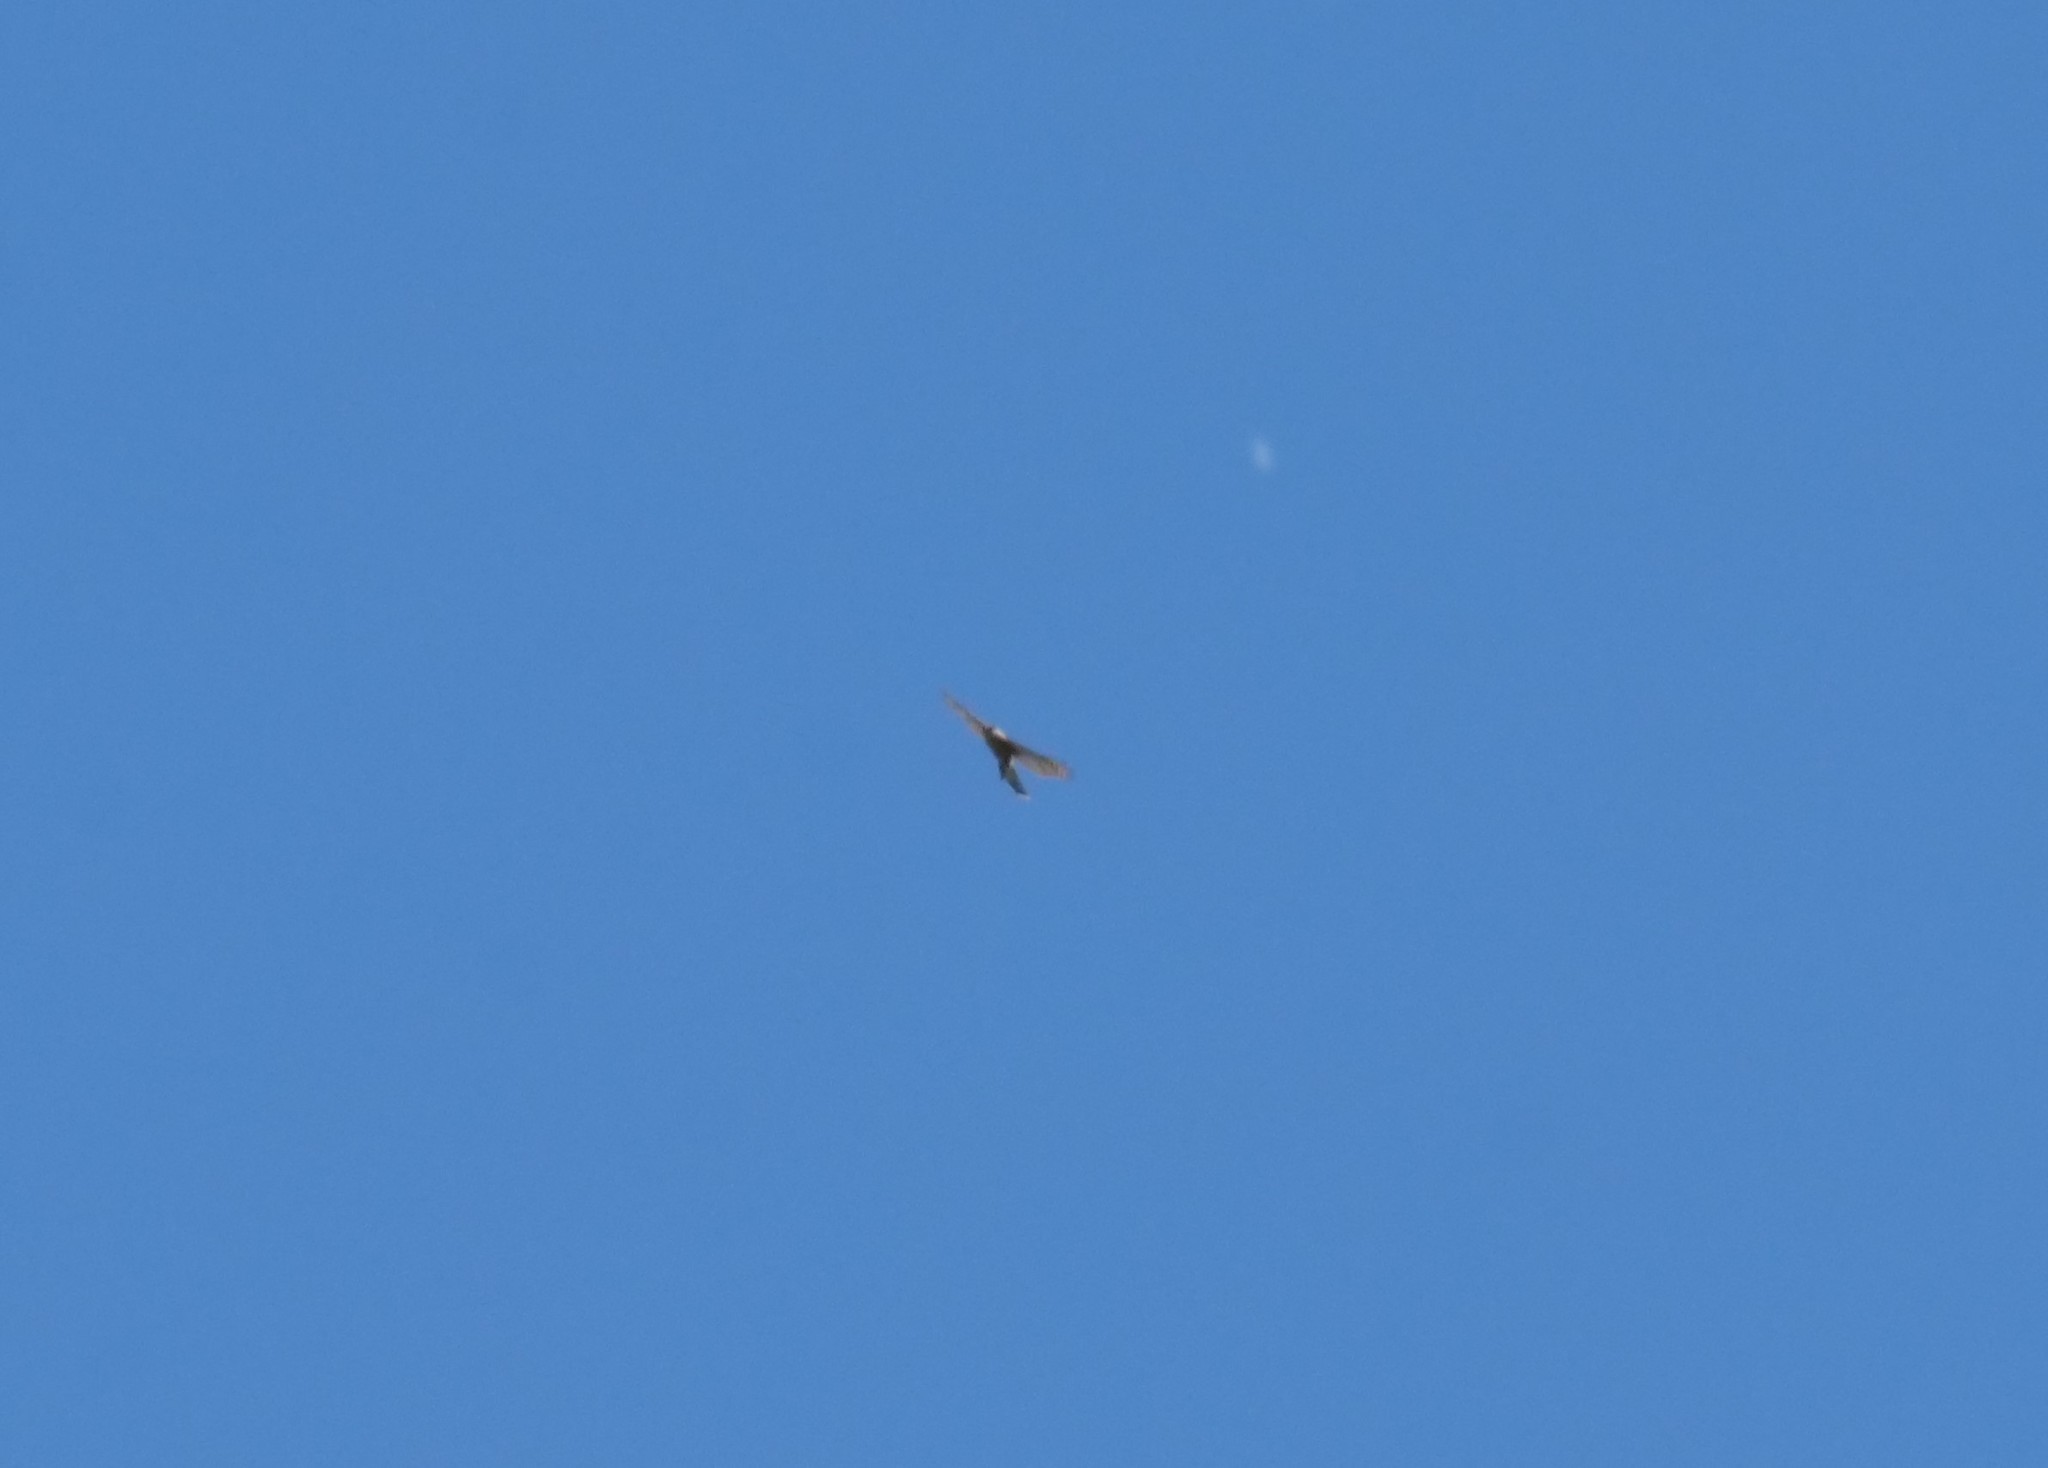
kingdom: Animalia
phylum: Chordata
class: Aves
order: Accipitriformes
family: Accipitridae
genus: Accipiter
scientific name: Accipiter cooperii
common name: Cooper's hawk
